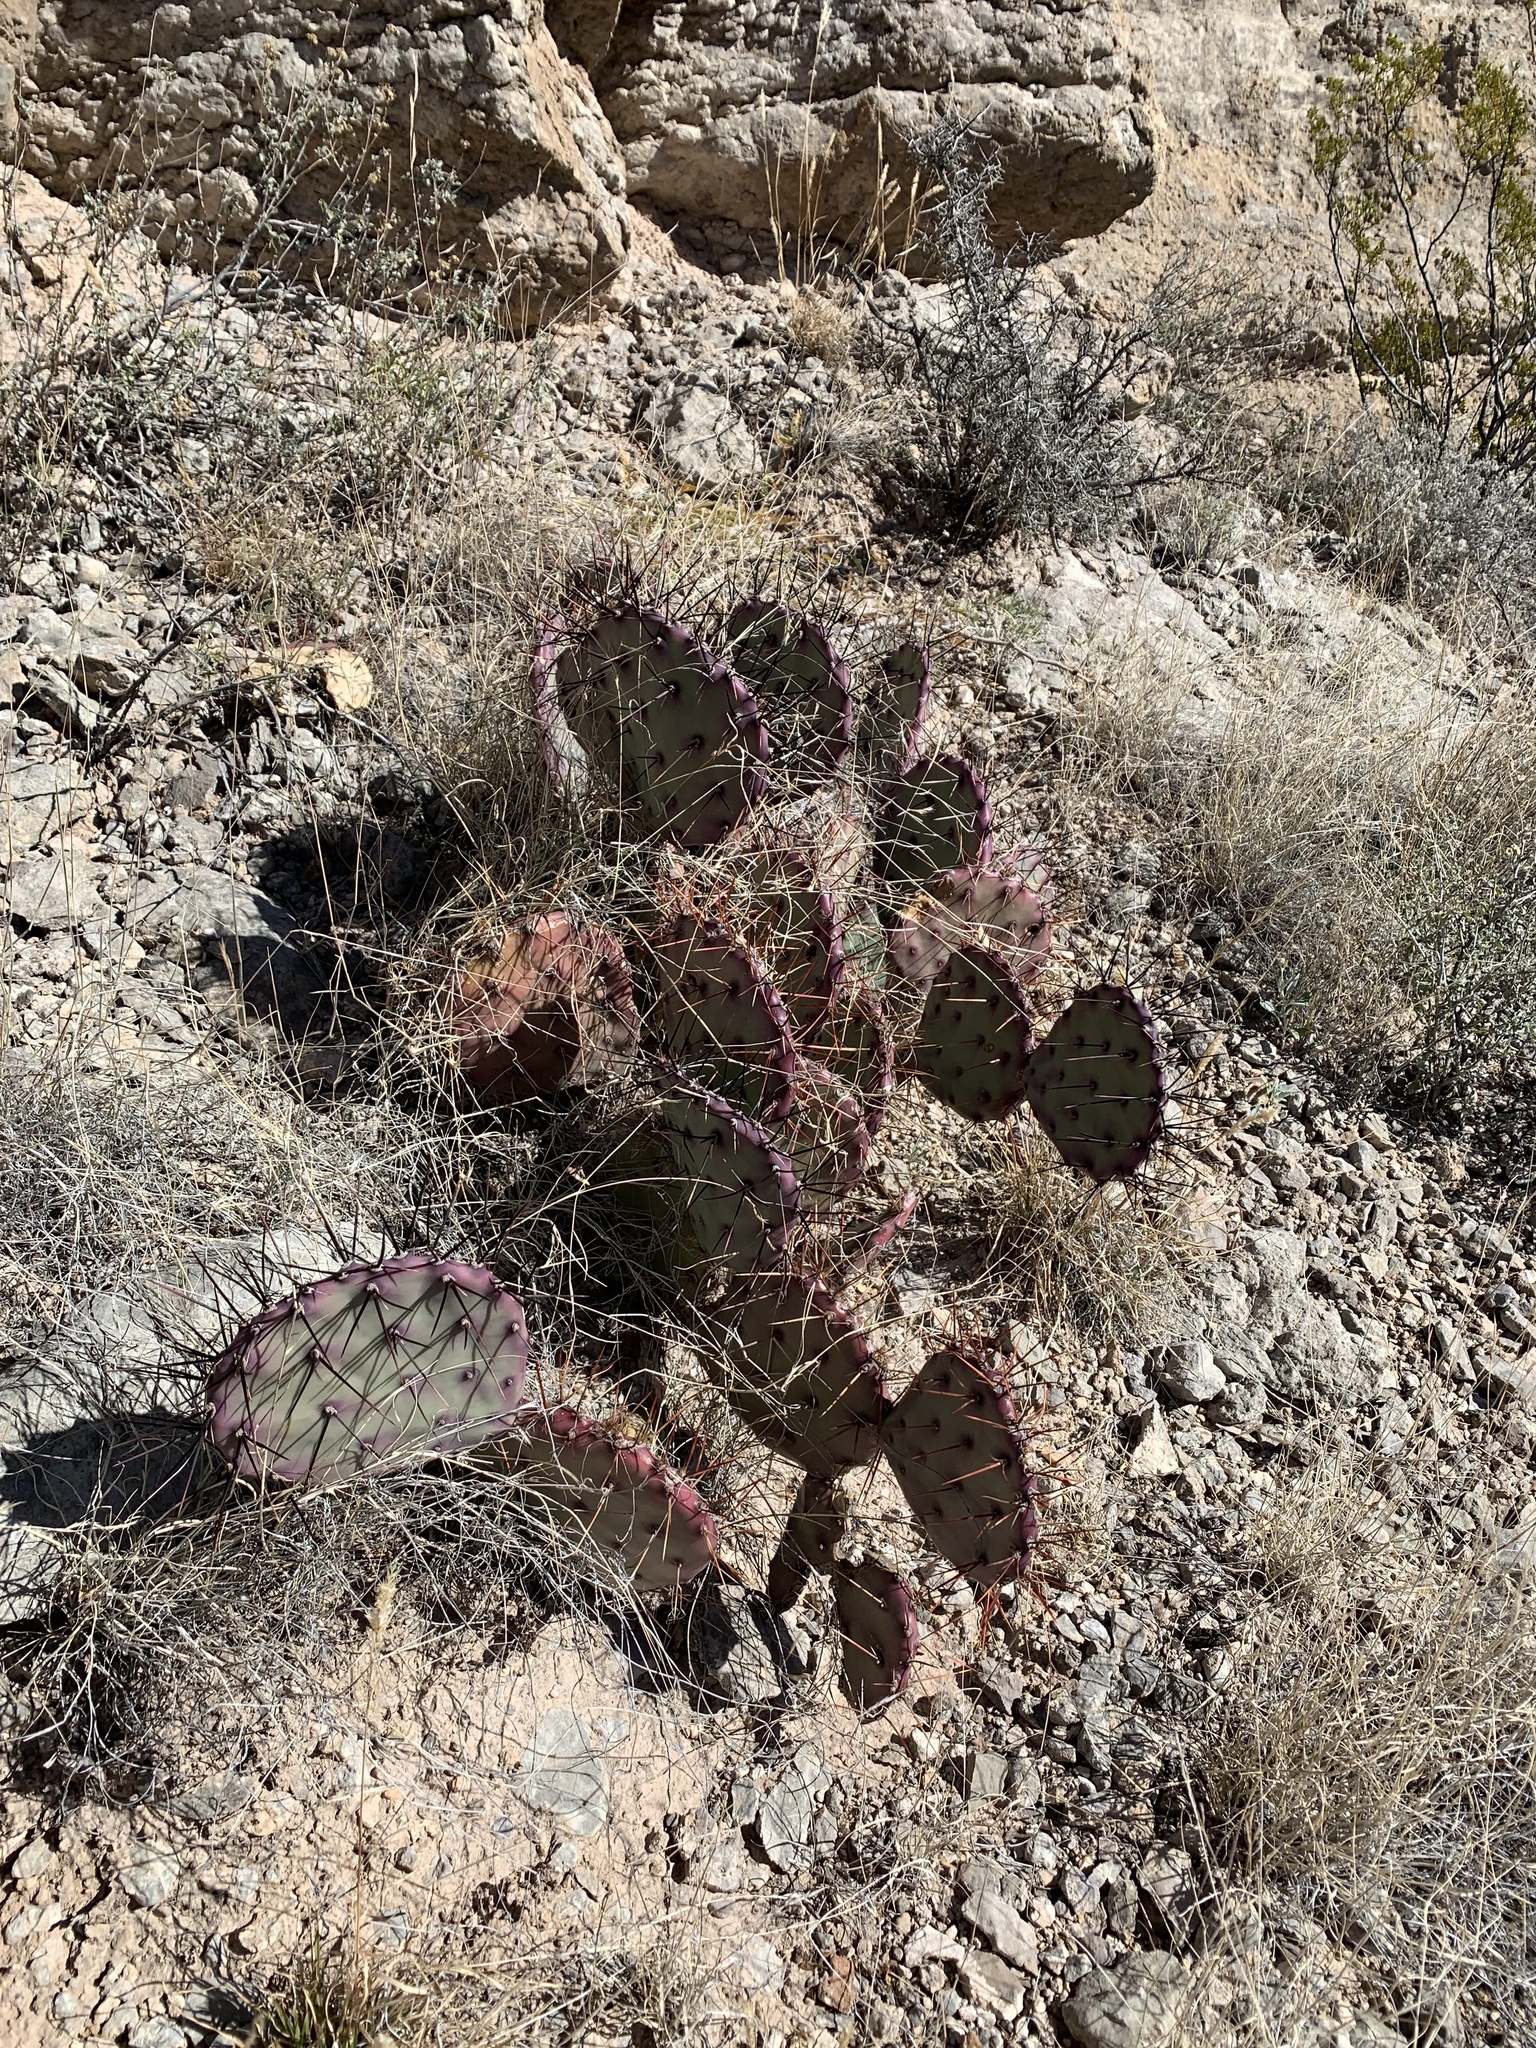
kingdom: Plantae
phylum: Tracheophyta
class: Magnoliopsida
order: Caryophyllales
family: Cactaceae
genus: Opuntia
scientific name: Opuntia macrocentra
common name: Purple prickly-pear
